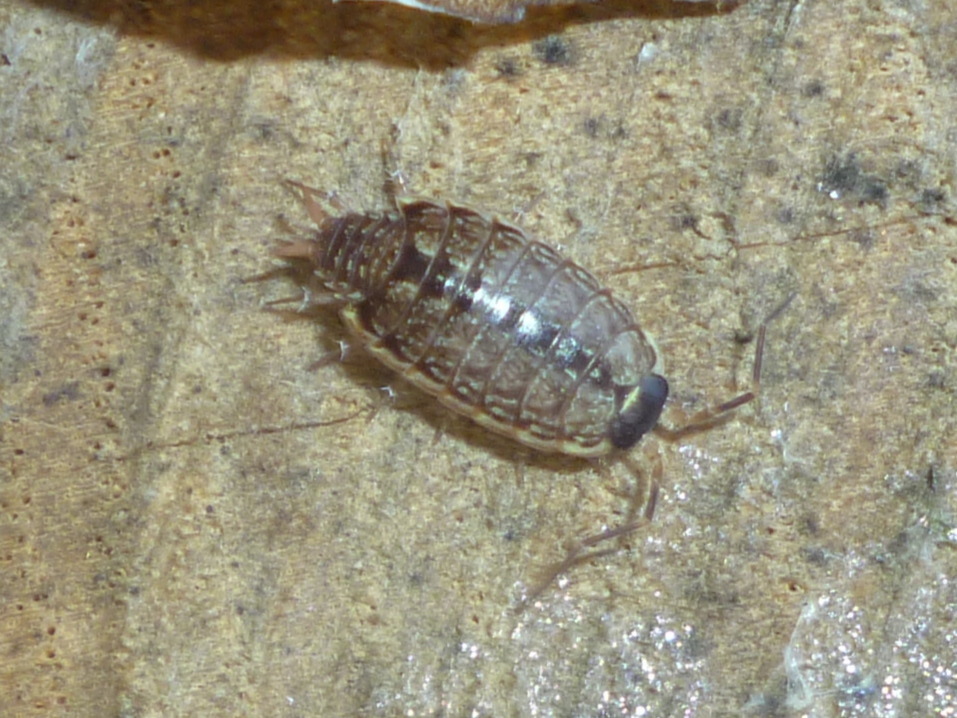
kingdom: Animalia
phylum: Arthropoda
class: Malacostraca
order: Isopoda
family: Philosciidae
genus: Philoscia
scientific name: Philoscia muscorum
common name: Common striped woodlouse
